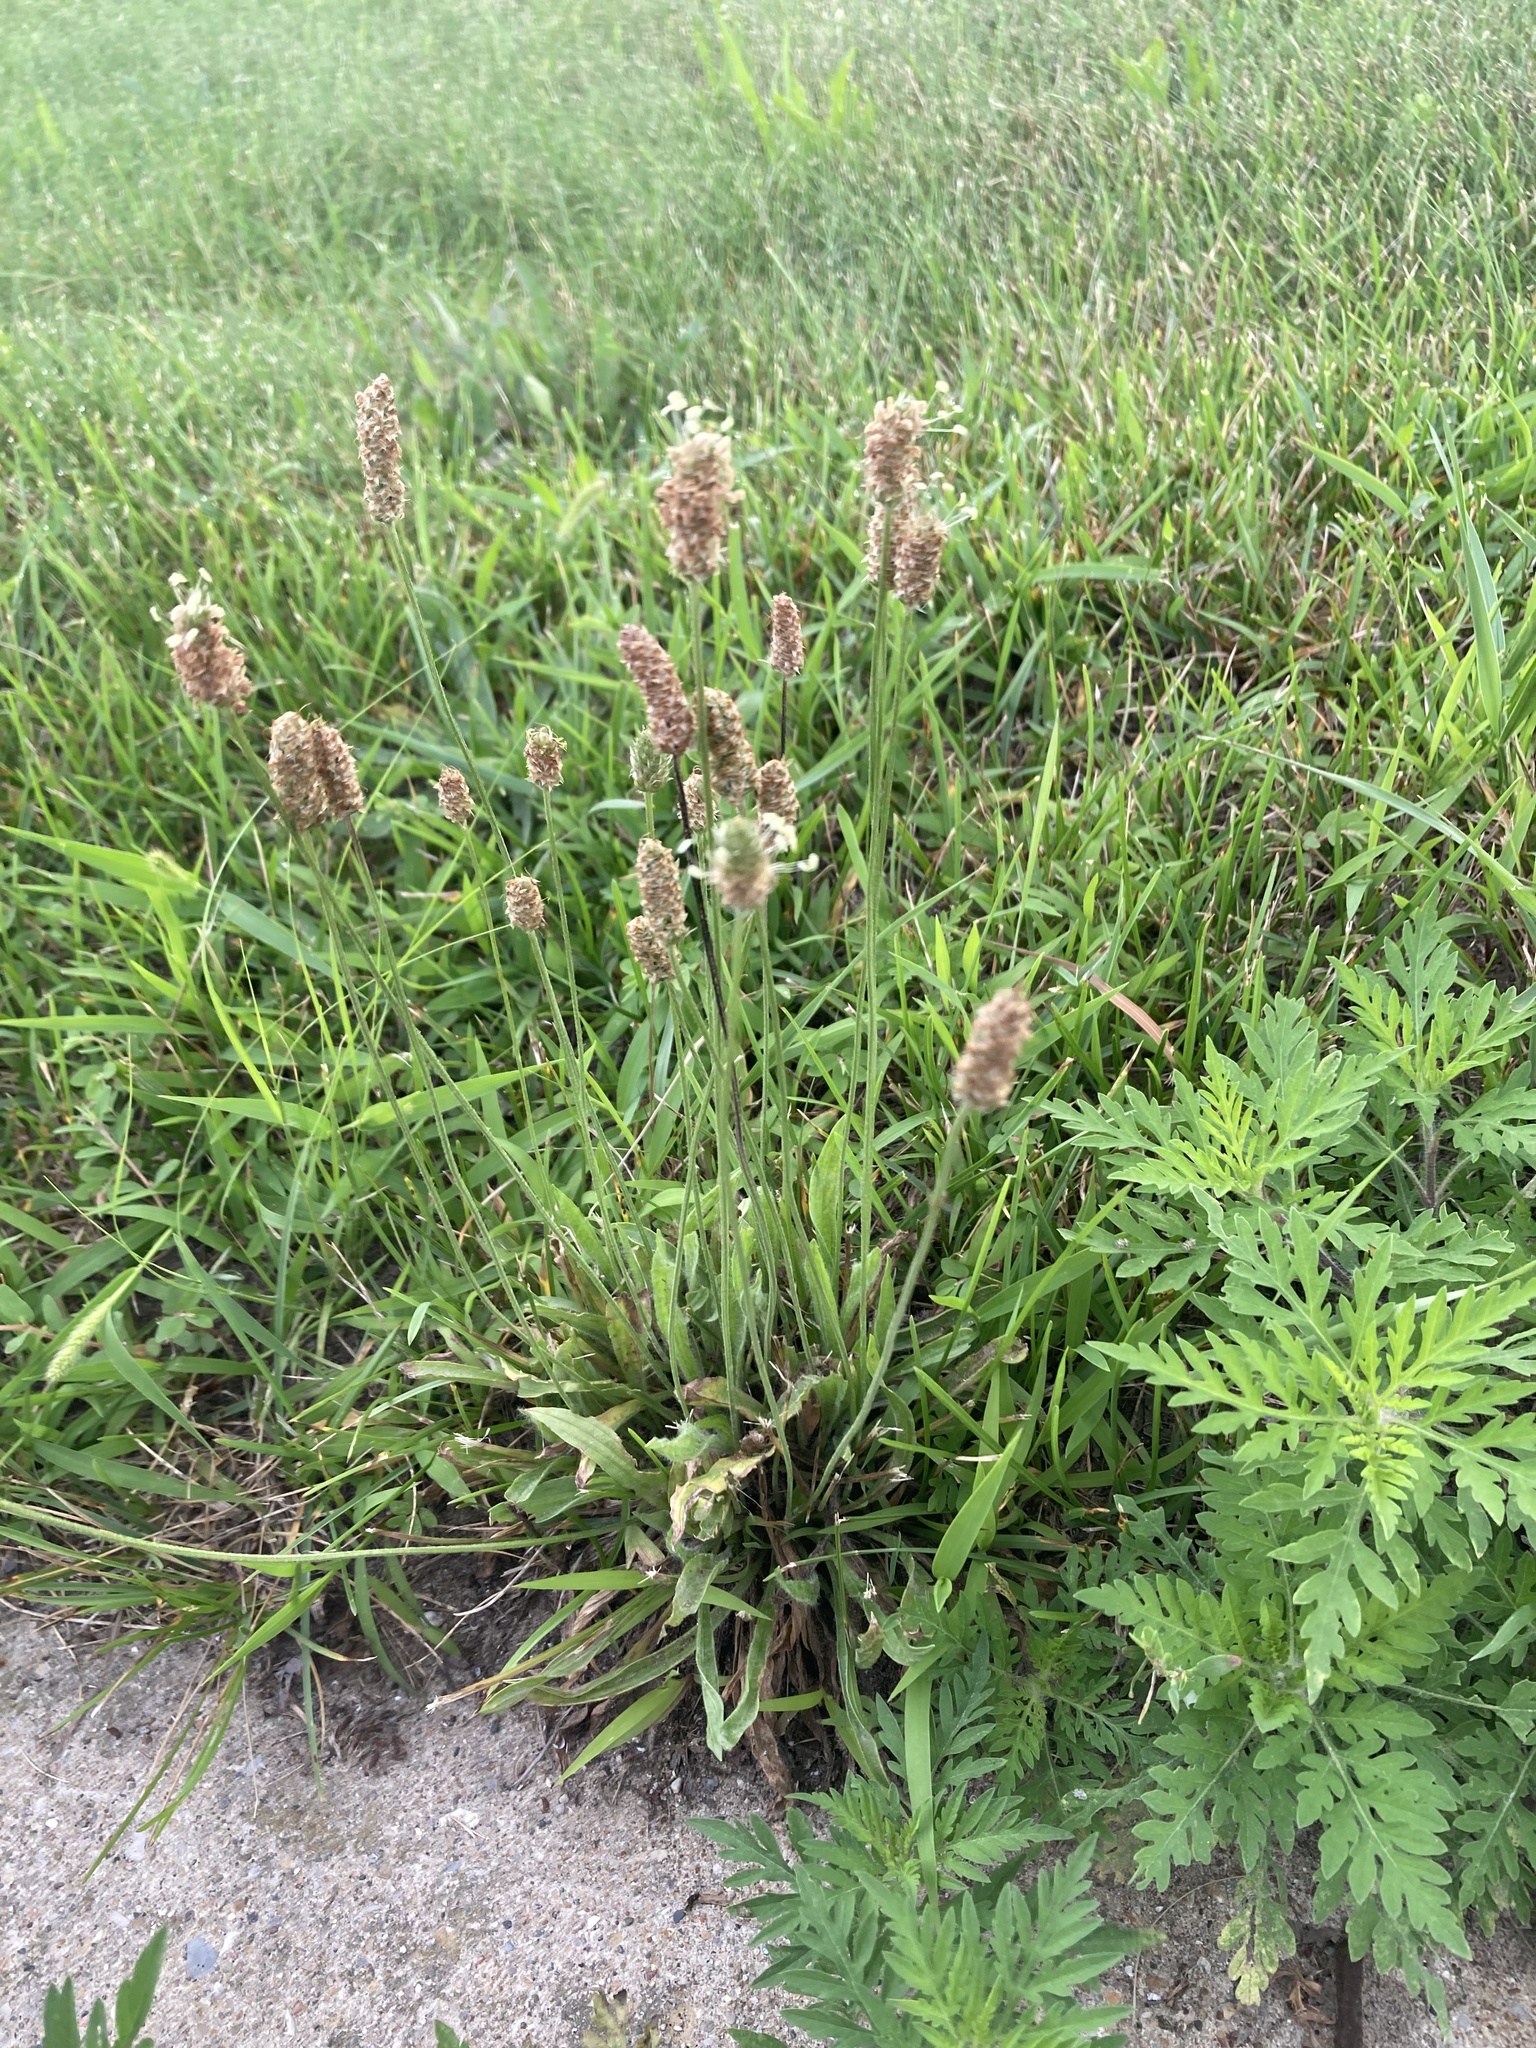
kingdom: Plantae
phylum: Tracheophyta
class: Magnoliopsida
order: Lamiales
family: Plantaginaceae
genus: Plantago
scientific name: Plantago lanceolata
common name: Ribwort plantain
